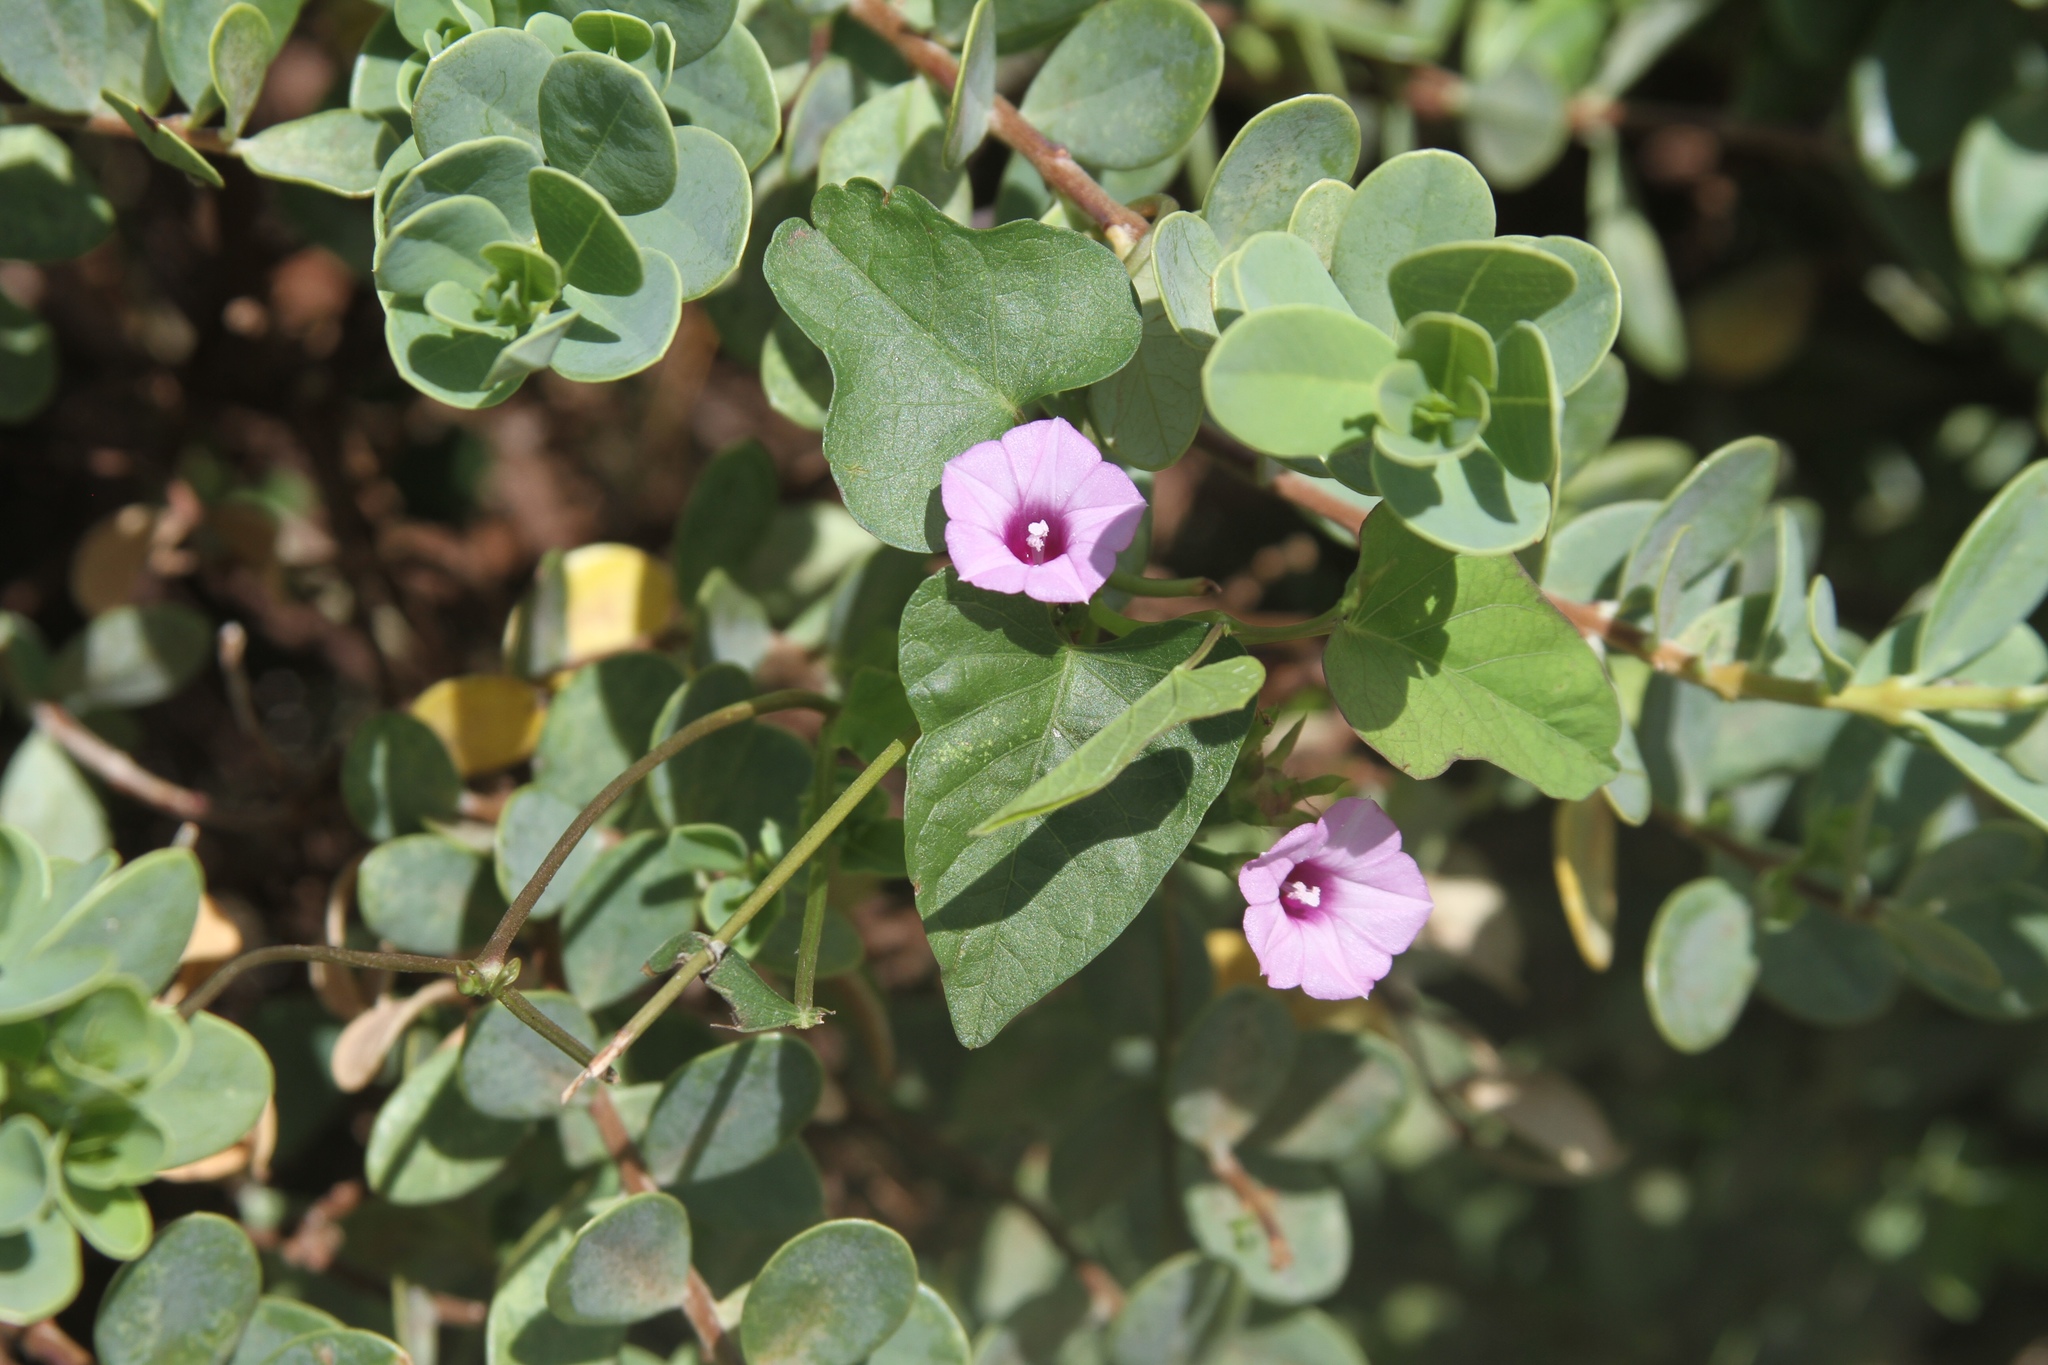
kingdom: Plantae
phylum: Tracheophyta
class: Magnoliopsida
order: Solanales
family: Convolvulaceae
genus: Ipomoea
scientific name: Ipomoea triloba
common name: Little-bell
